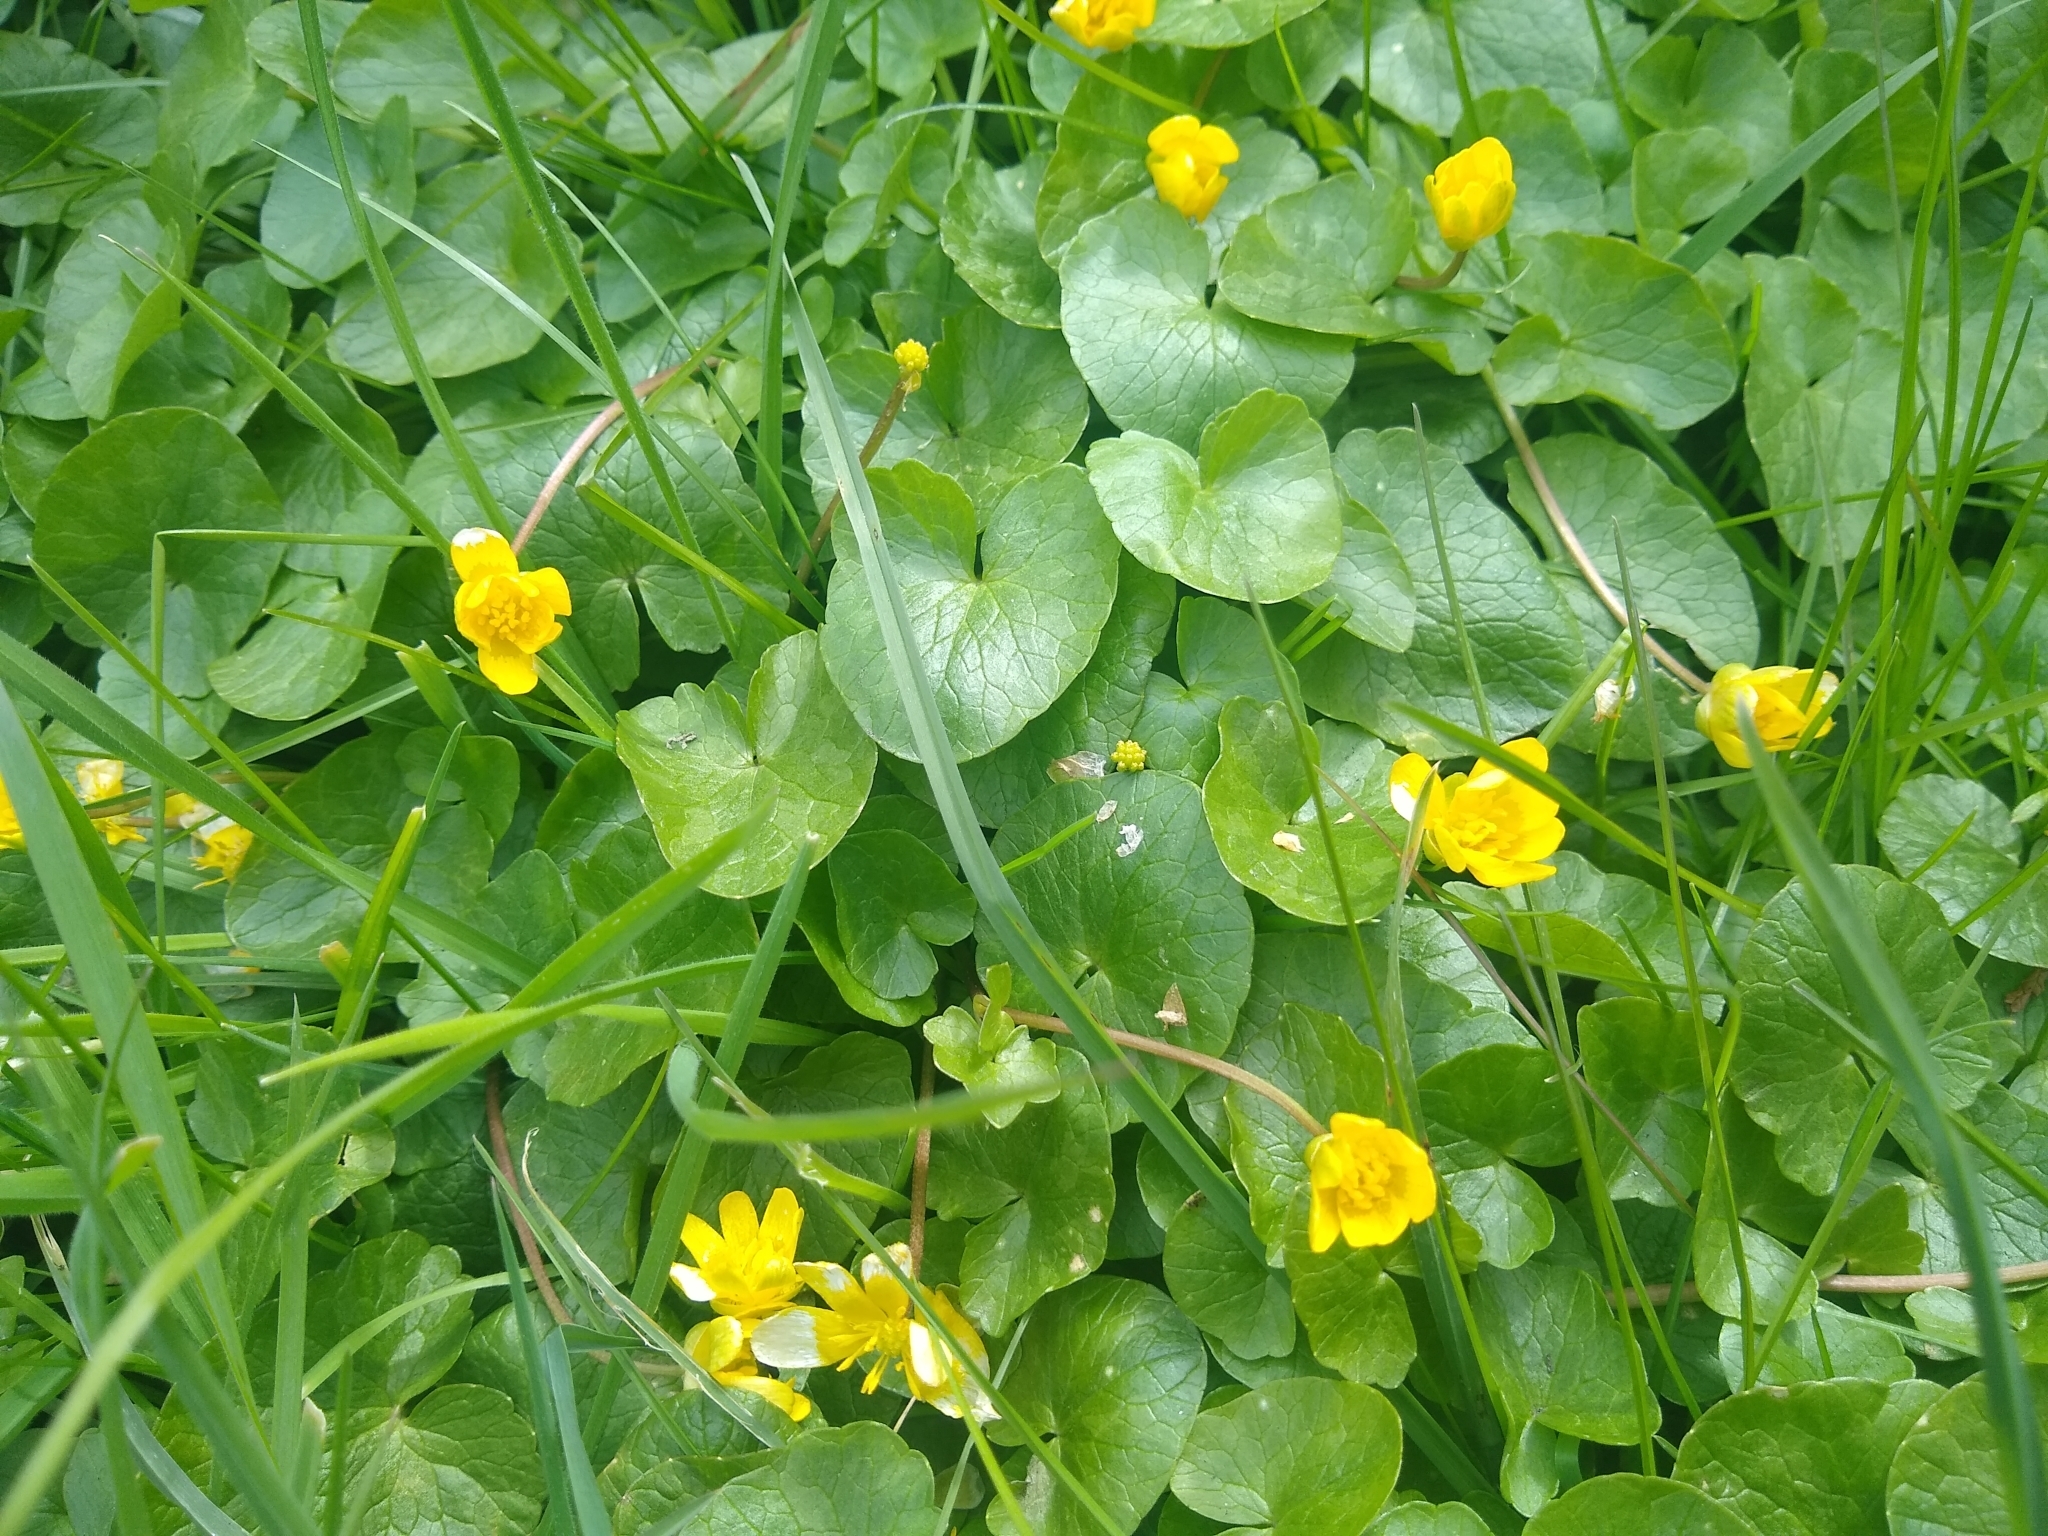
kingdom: Plantae
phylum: Tracheophyta
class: Magnoliopsida
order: Ranunculales
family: Ranunculaceae
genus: Ficaria
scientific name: Ficaria verna
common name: Lesser celandine
